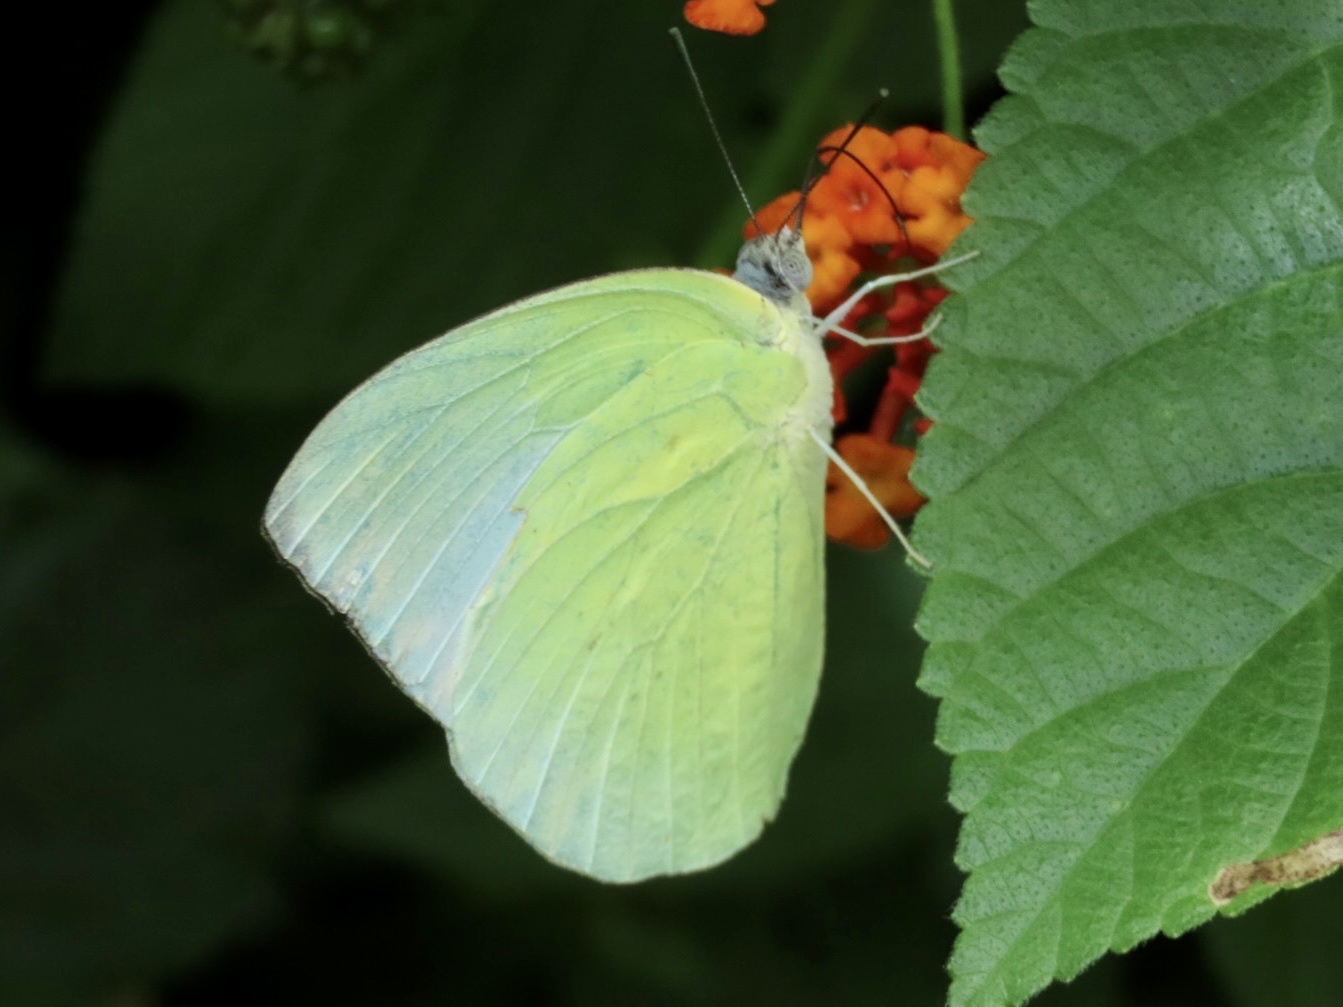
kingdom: Animalia
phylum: Arthropoda
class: Insecta
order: Lepidoptera
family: Pieridae
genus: Catopsilia
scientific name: Catopsilia pomona
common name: Common emigrant
